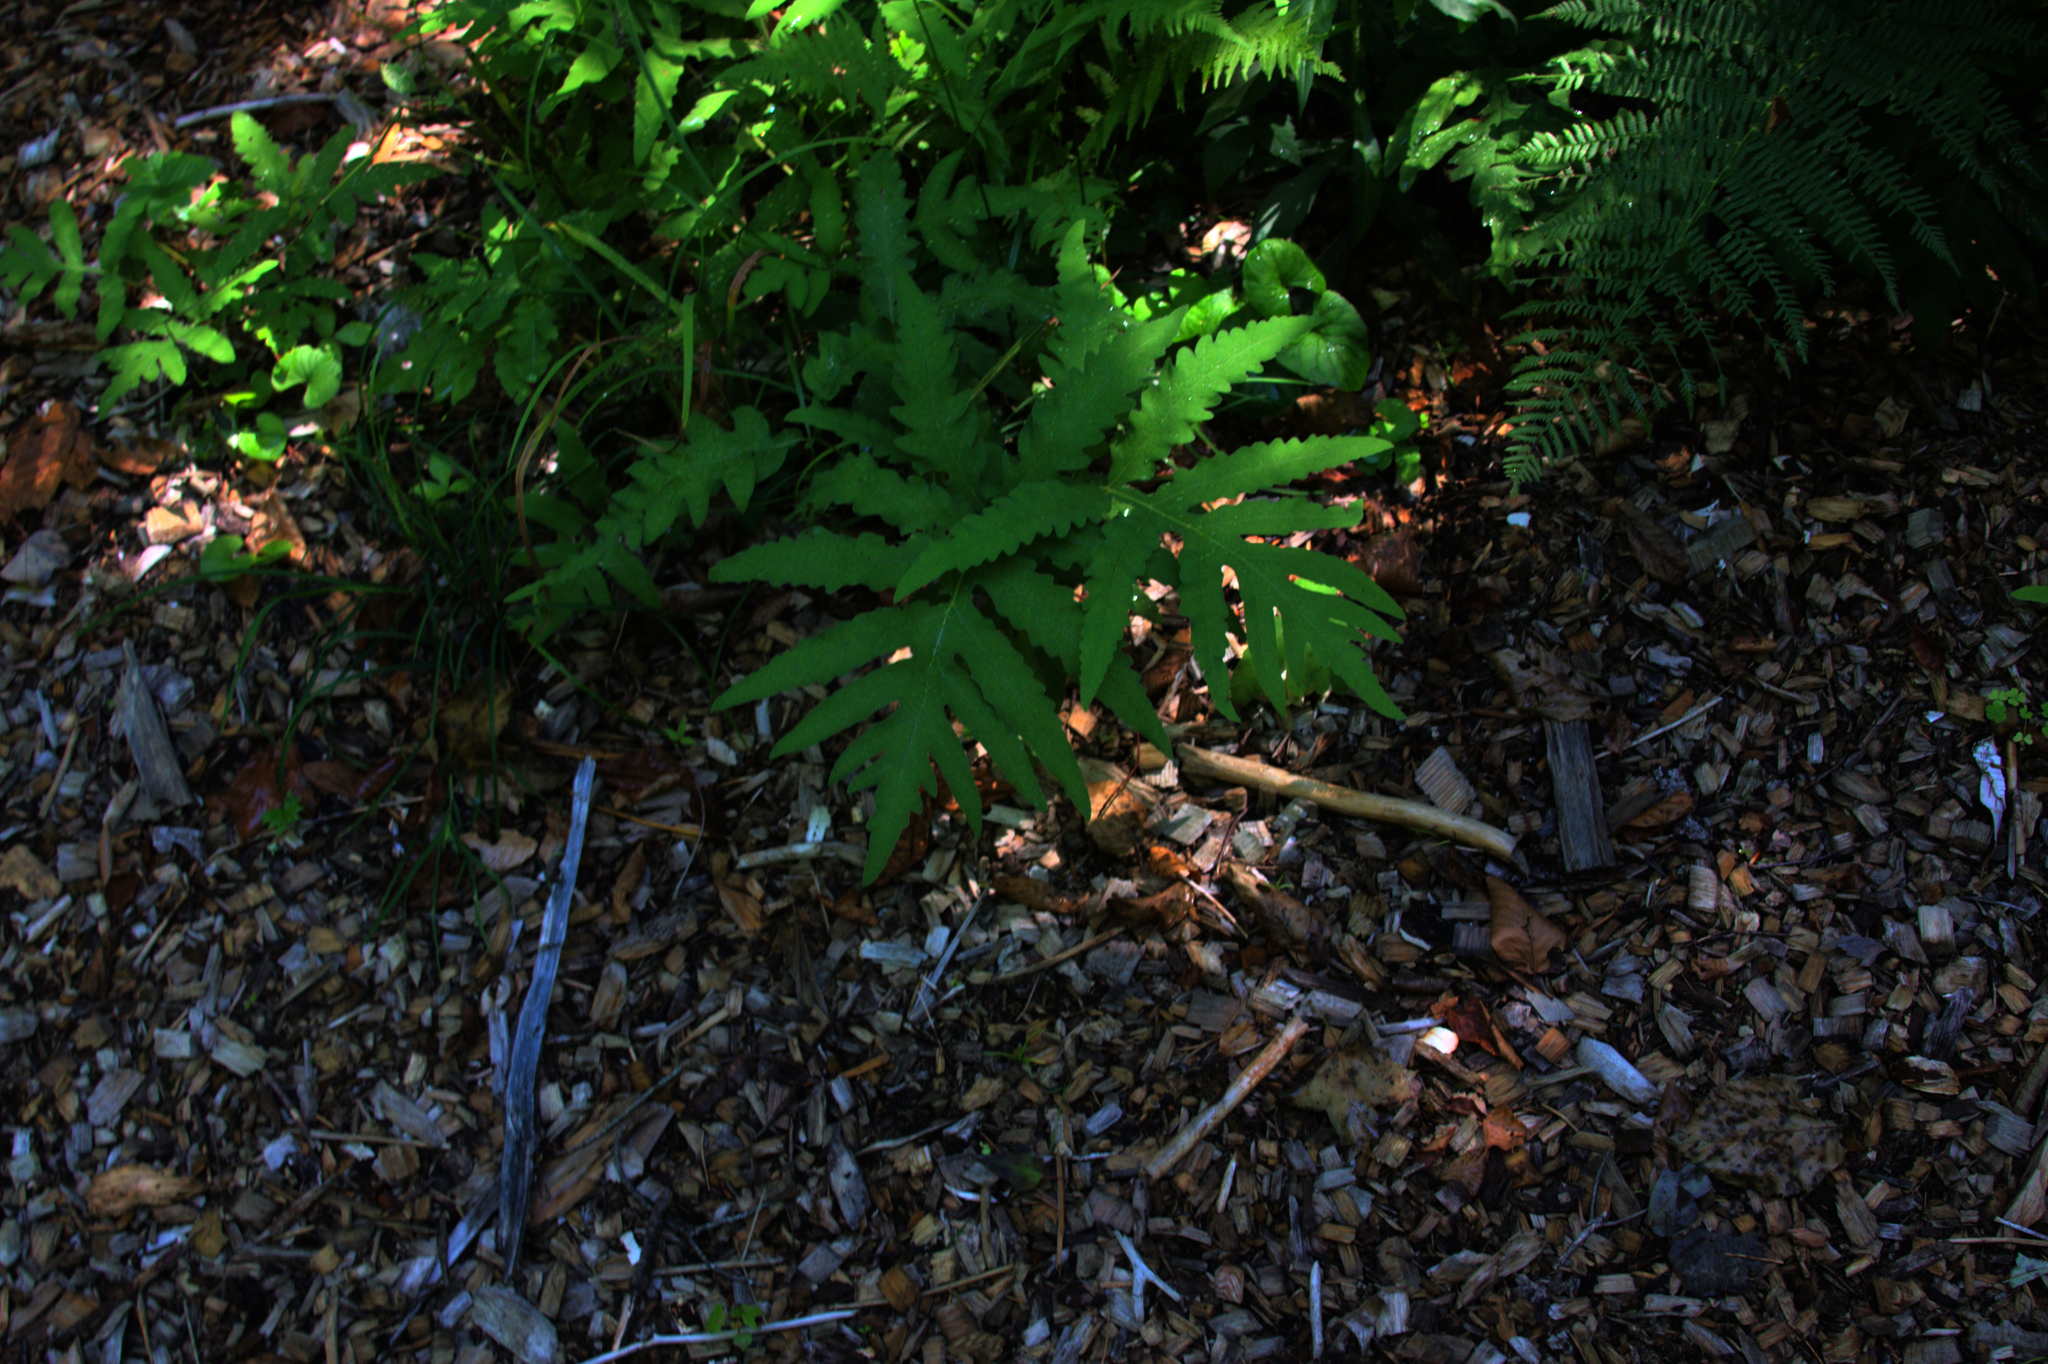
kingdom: Plantae
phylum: Tracheophyta
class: Polypodiopsida
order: Polypodiales
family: Onocleaceae
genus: Onoclea
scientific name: Onoclea sensibilis
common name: Sensitive fern
